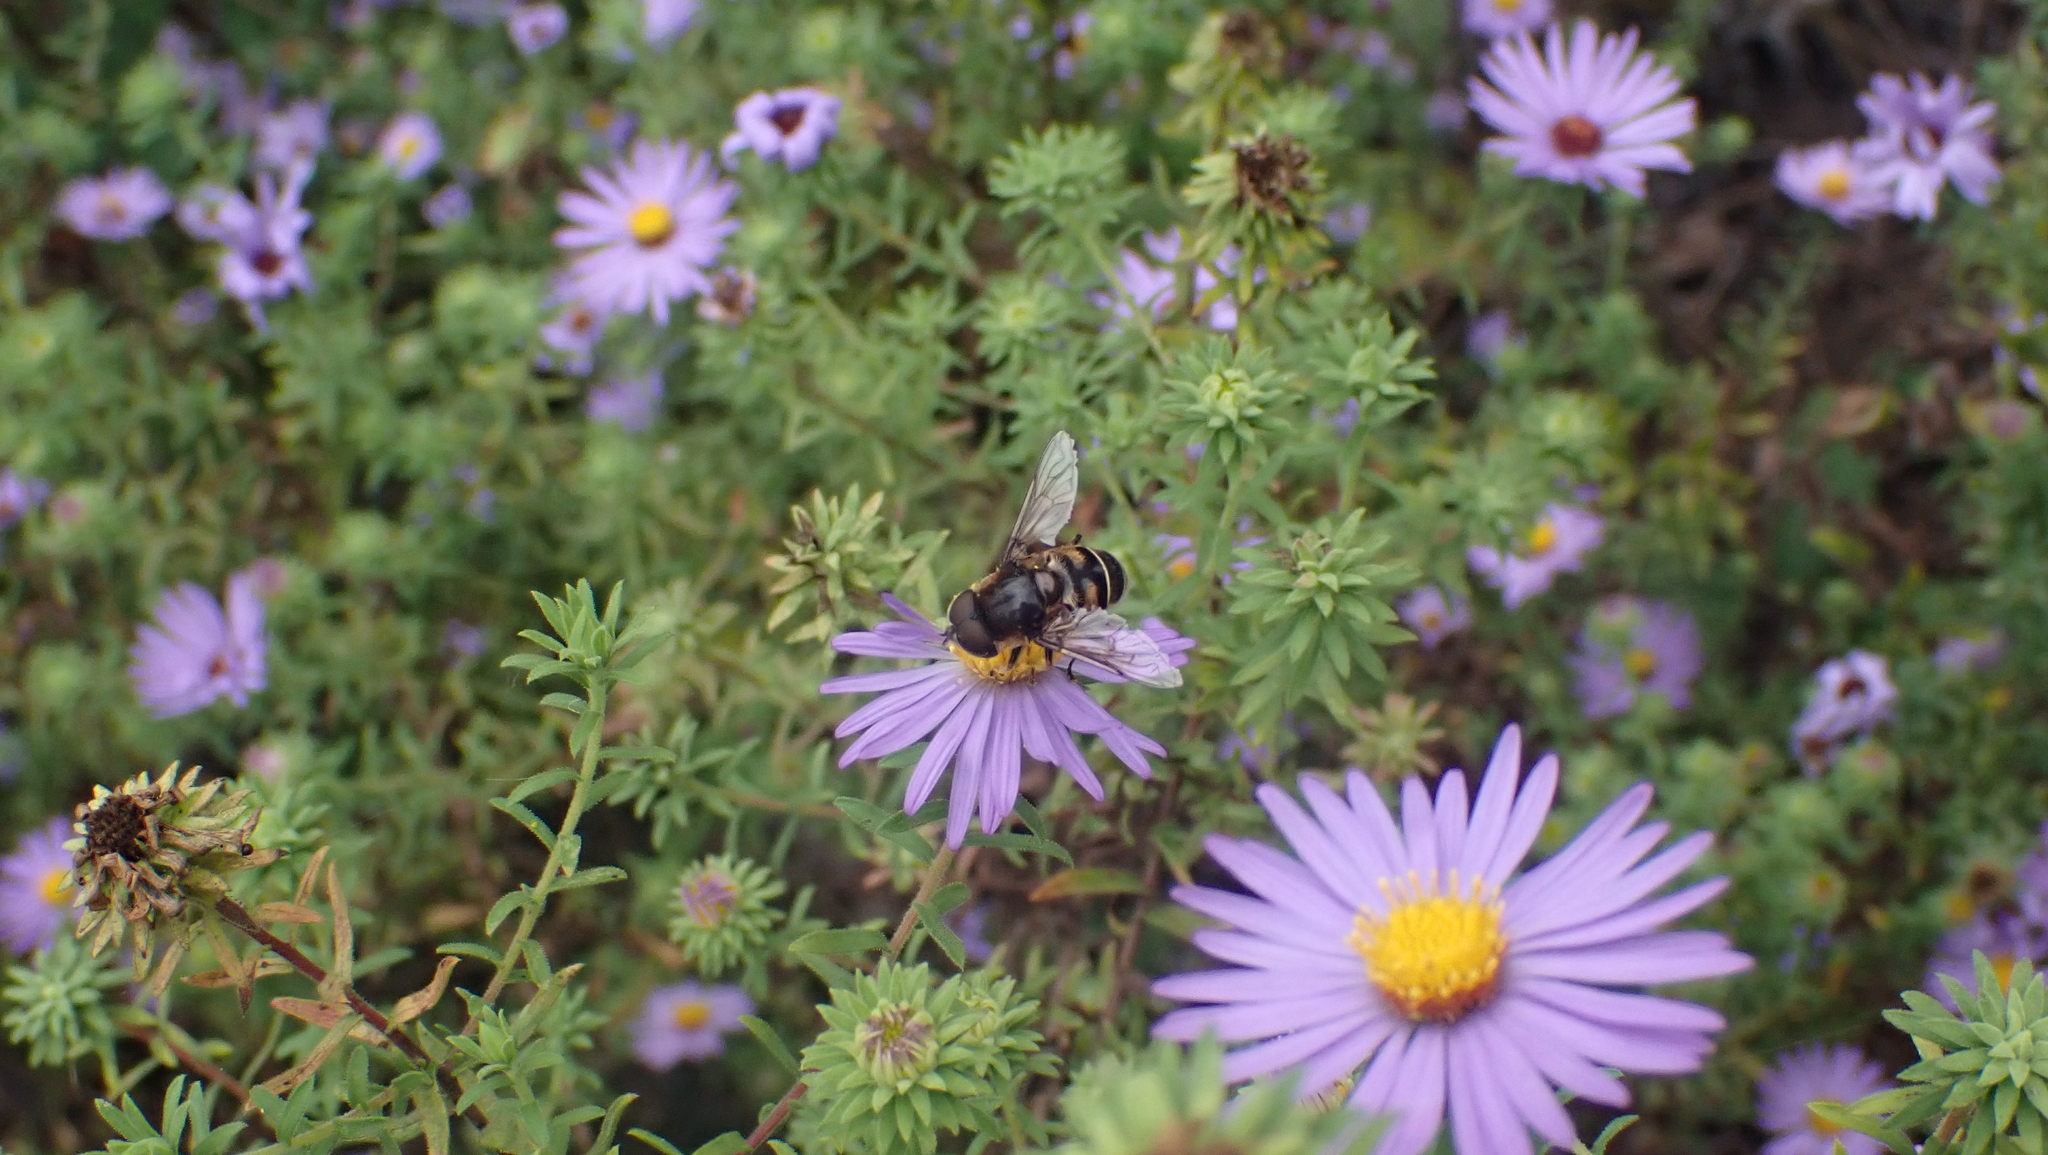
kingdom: Animalia
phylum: Arthropoda
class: Insecta
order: Diptera
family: Syrphidae
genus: Eristalis
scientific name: Eristalis dimidiata
